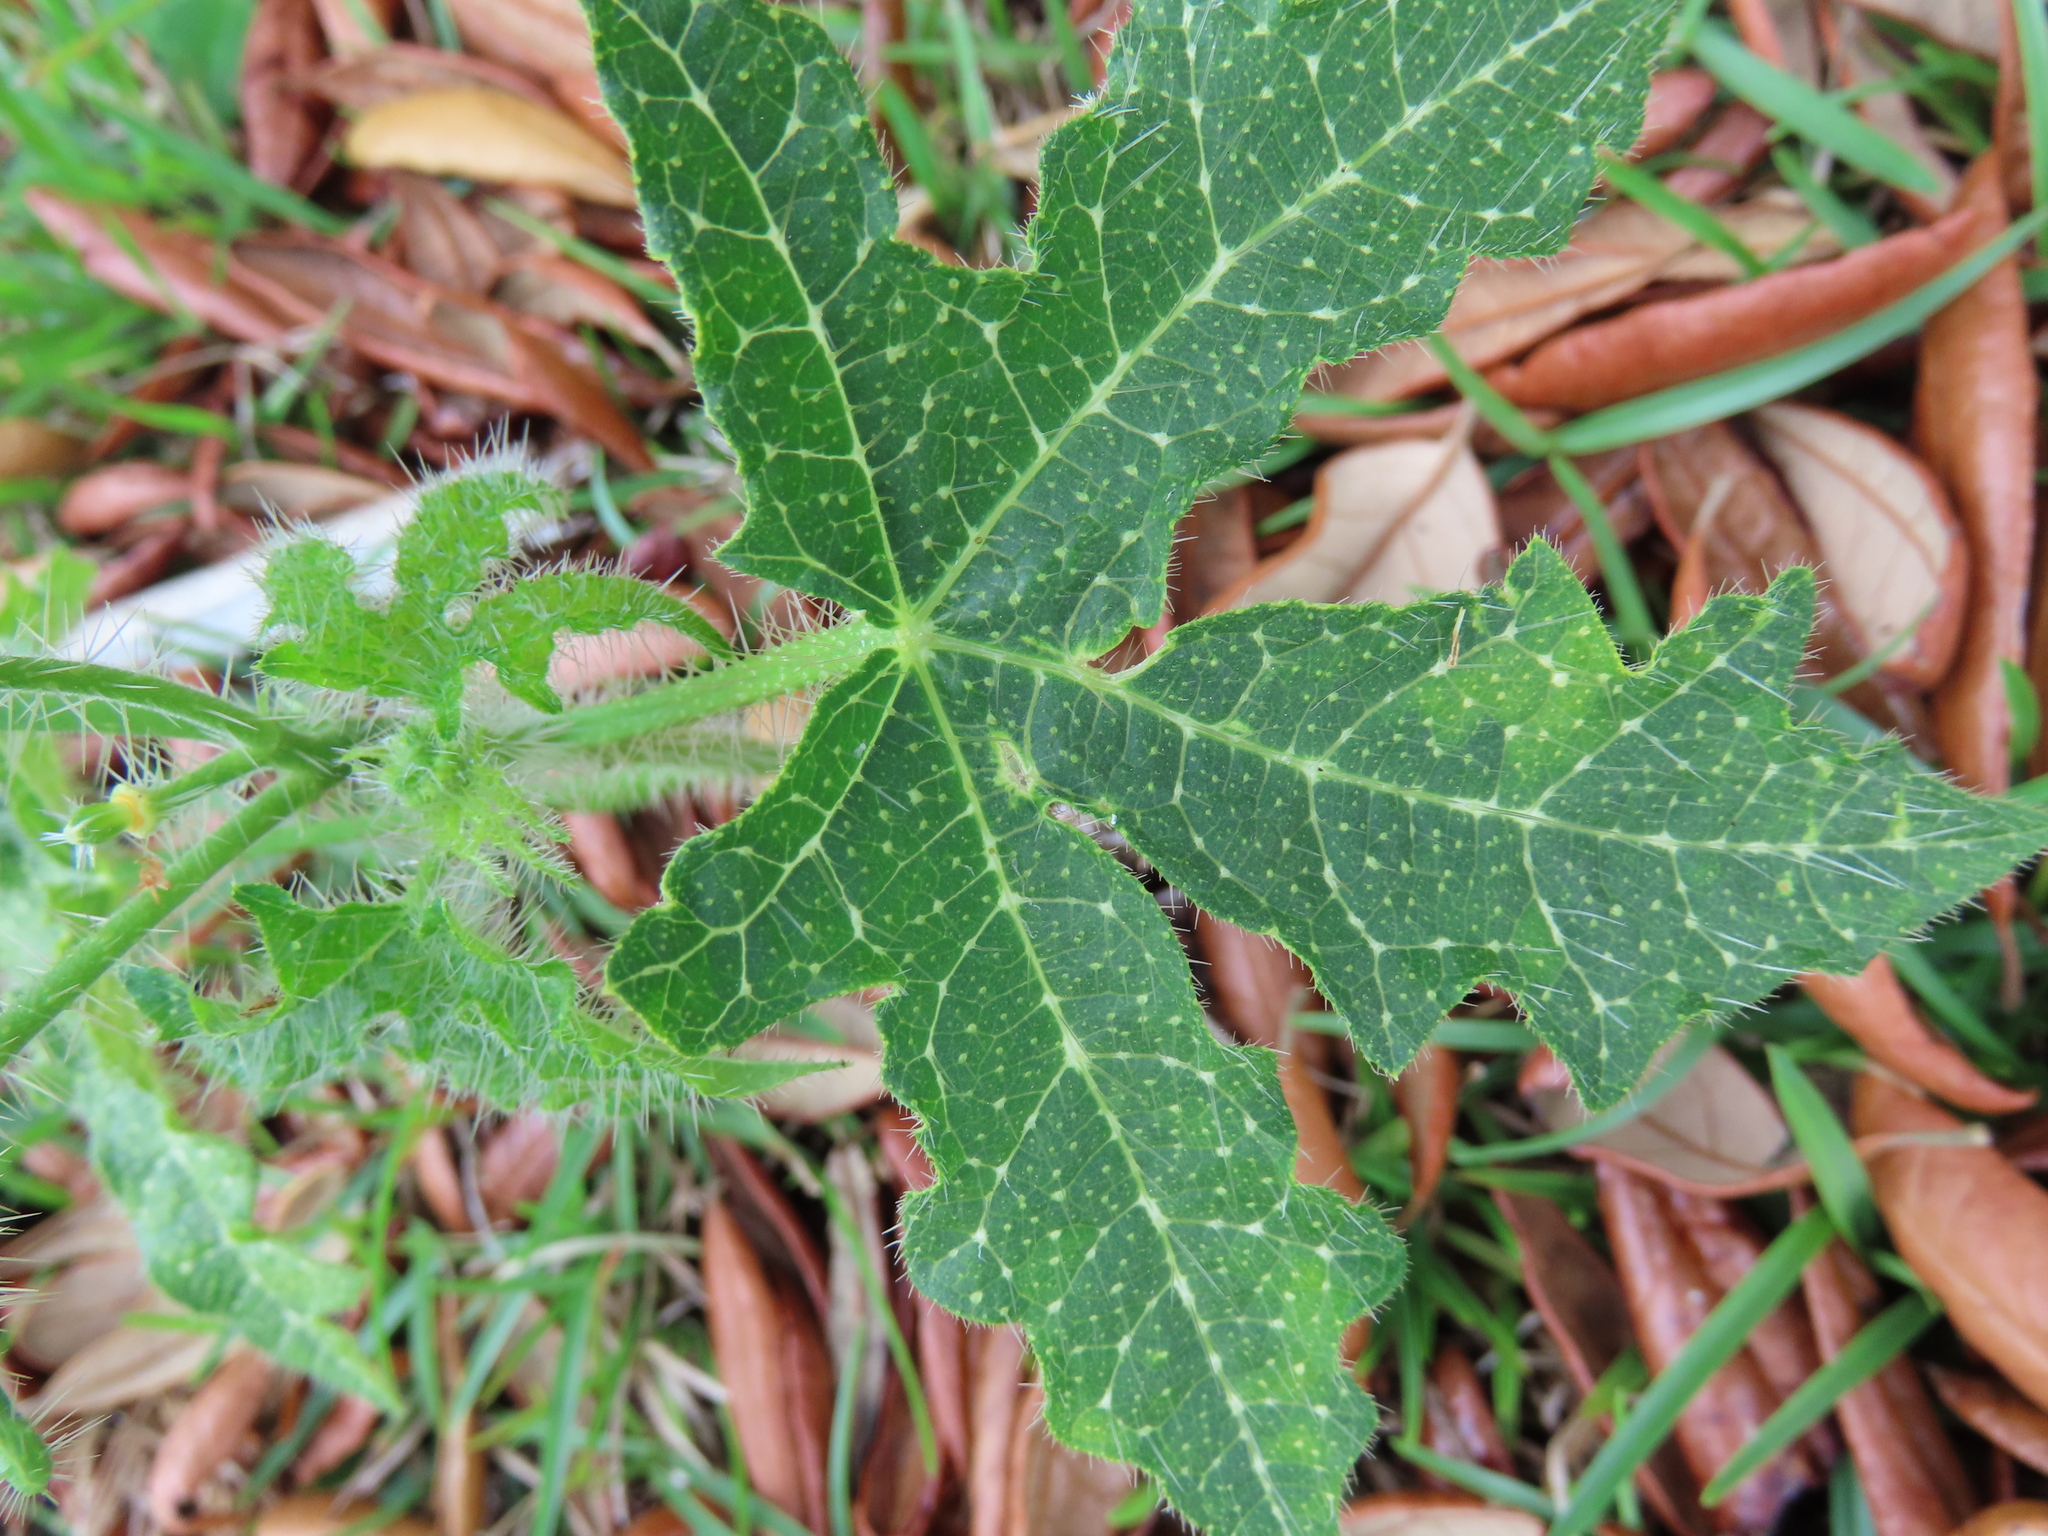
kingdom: Plantae
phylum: Tracheophyta
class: Magnoliopsida
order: Malpighiales
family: Euphorbiaceae
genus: Cnidoscolus
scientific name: Cnidoscolus stimulosus
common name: Bull-nettle
